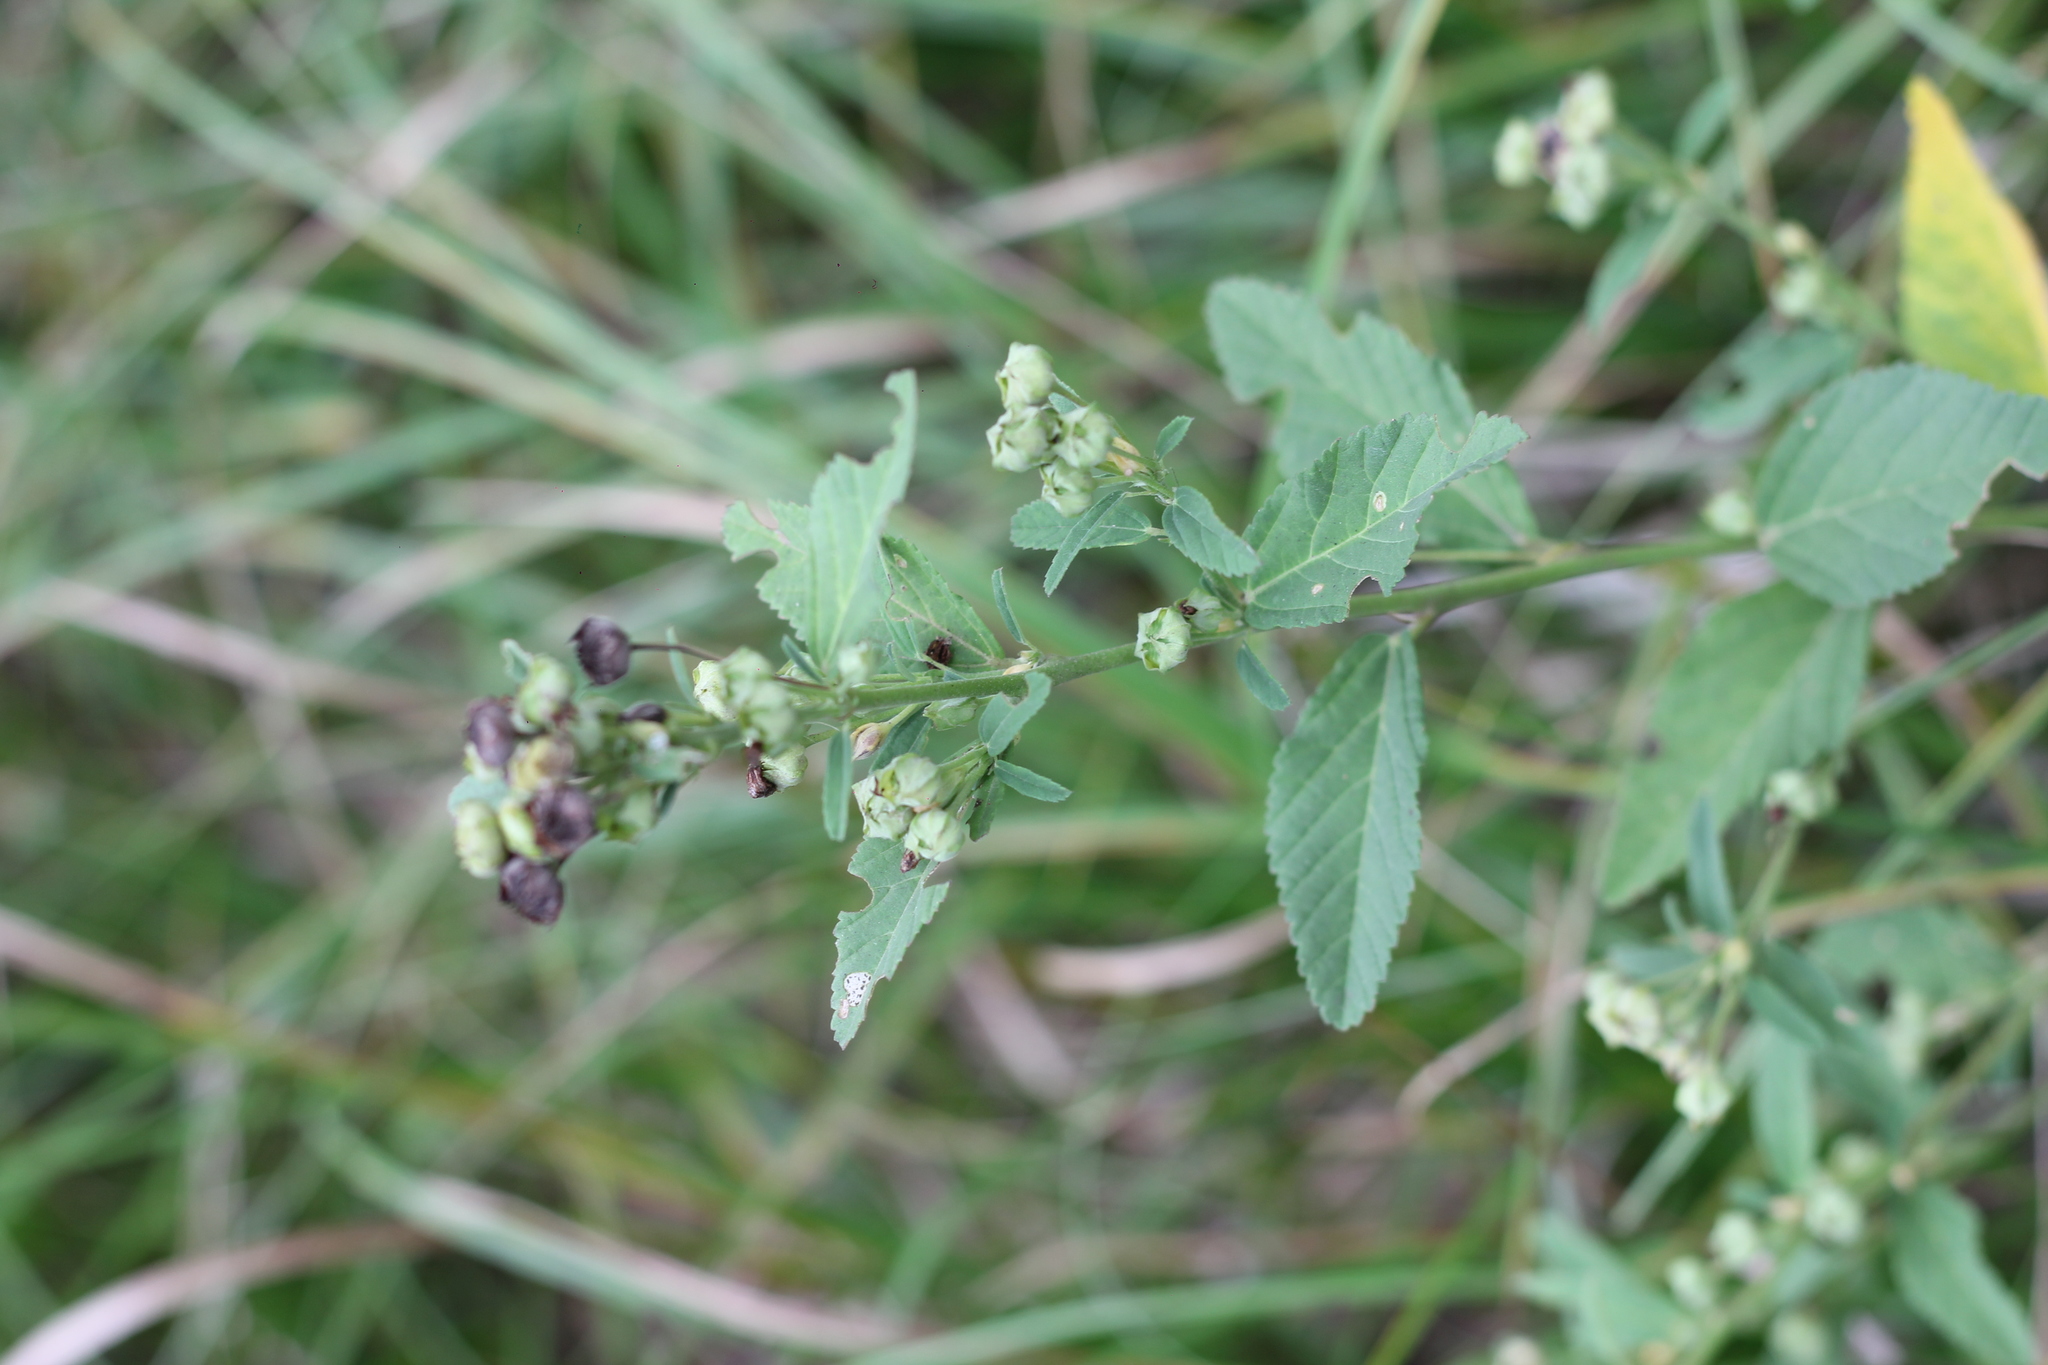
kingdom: Plantae
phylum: Tracheophyta
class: Magnoliopsida
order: Malvales
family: Malvaceae
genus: Sida
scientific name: Sida rhombifolia
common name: Queensland-hemp
